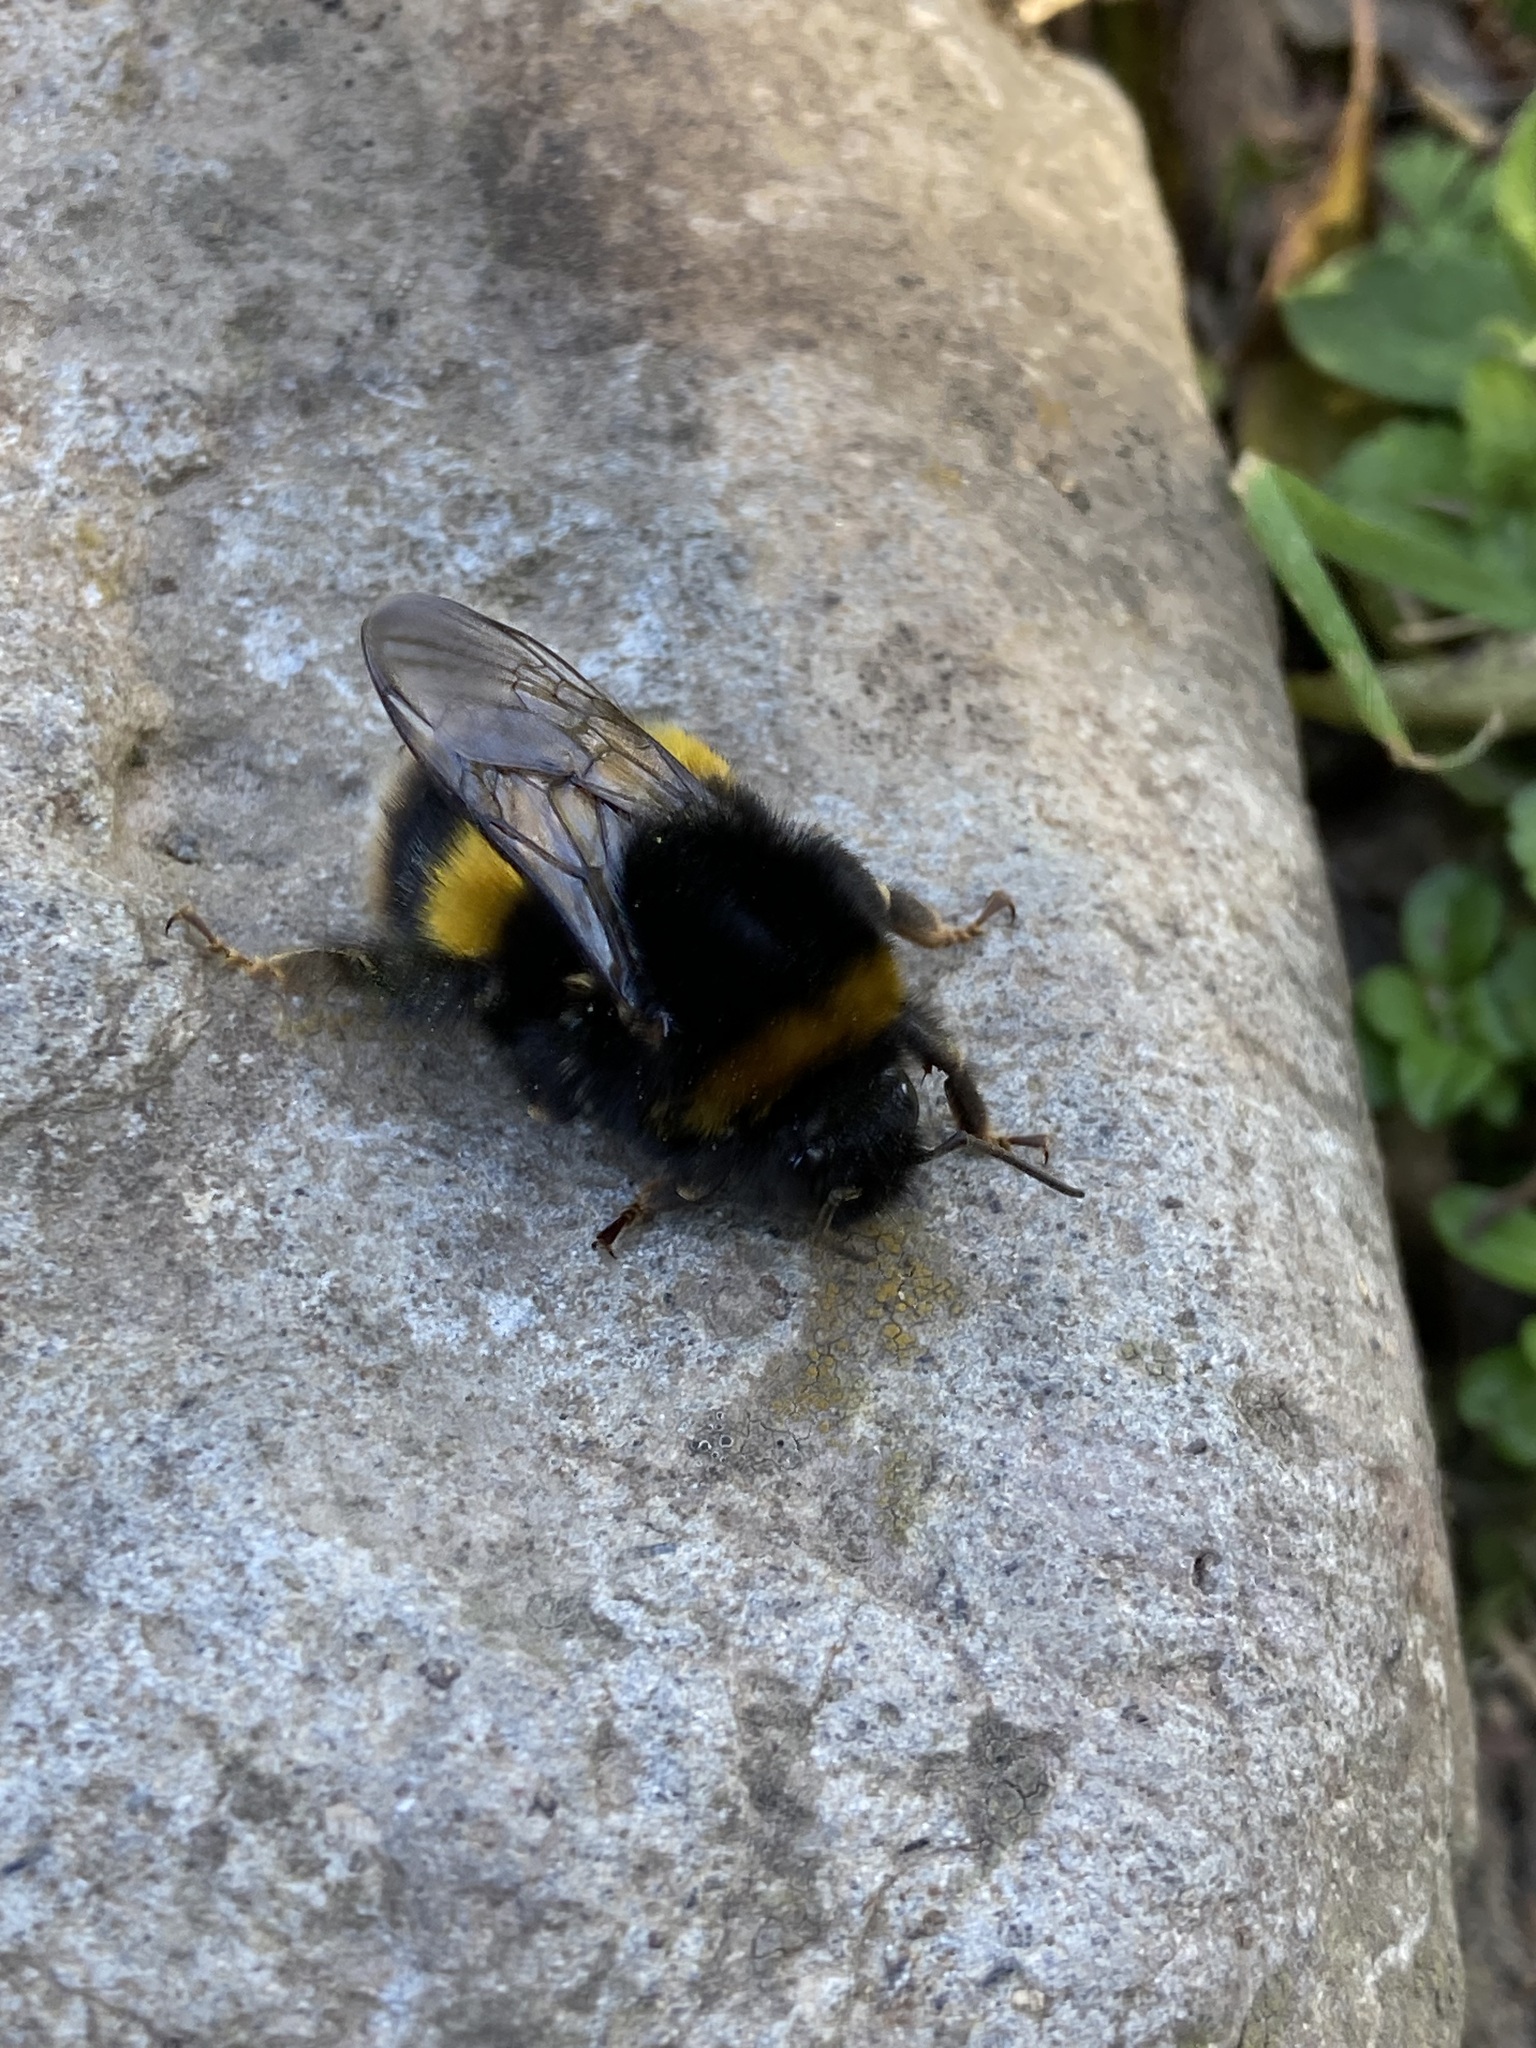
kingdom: Animalia
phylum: Arthropoda
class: Insecta
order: Hymenoptera
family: Apidae
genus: Bombus
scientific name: Bombus terrestris
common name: Buff-tailed bumblebee
